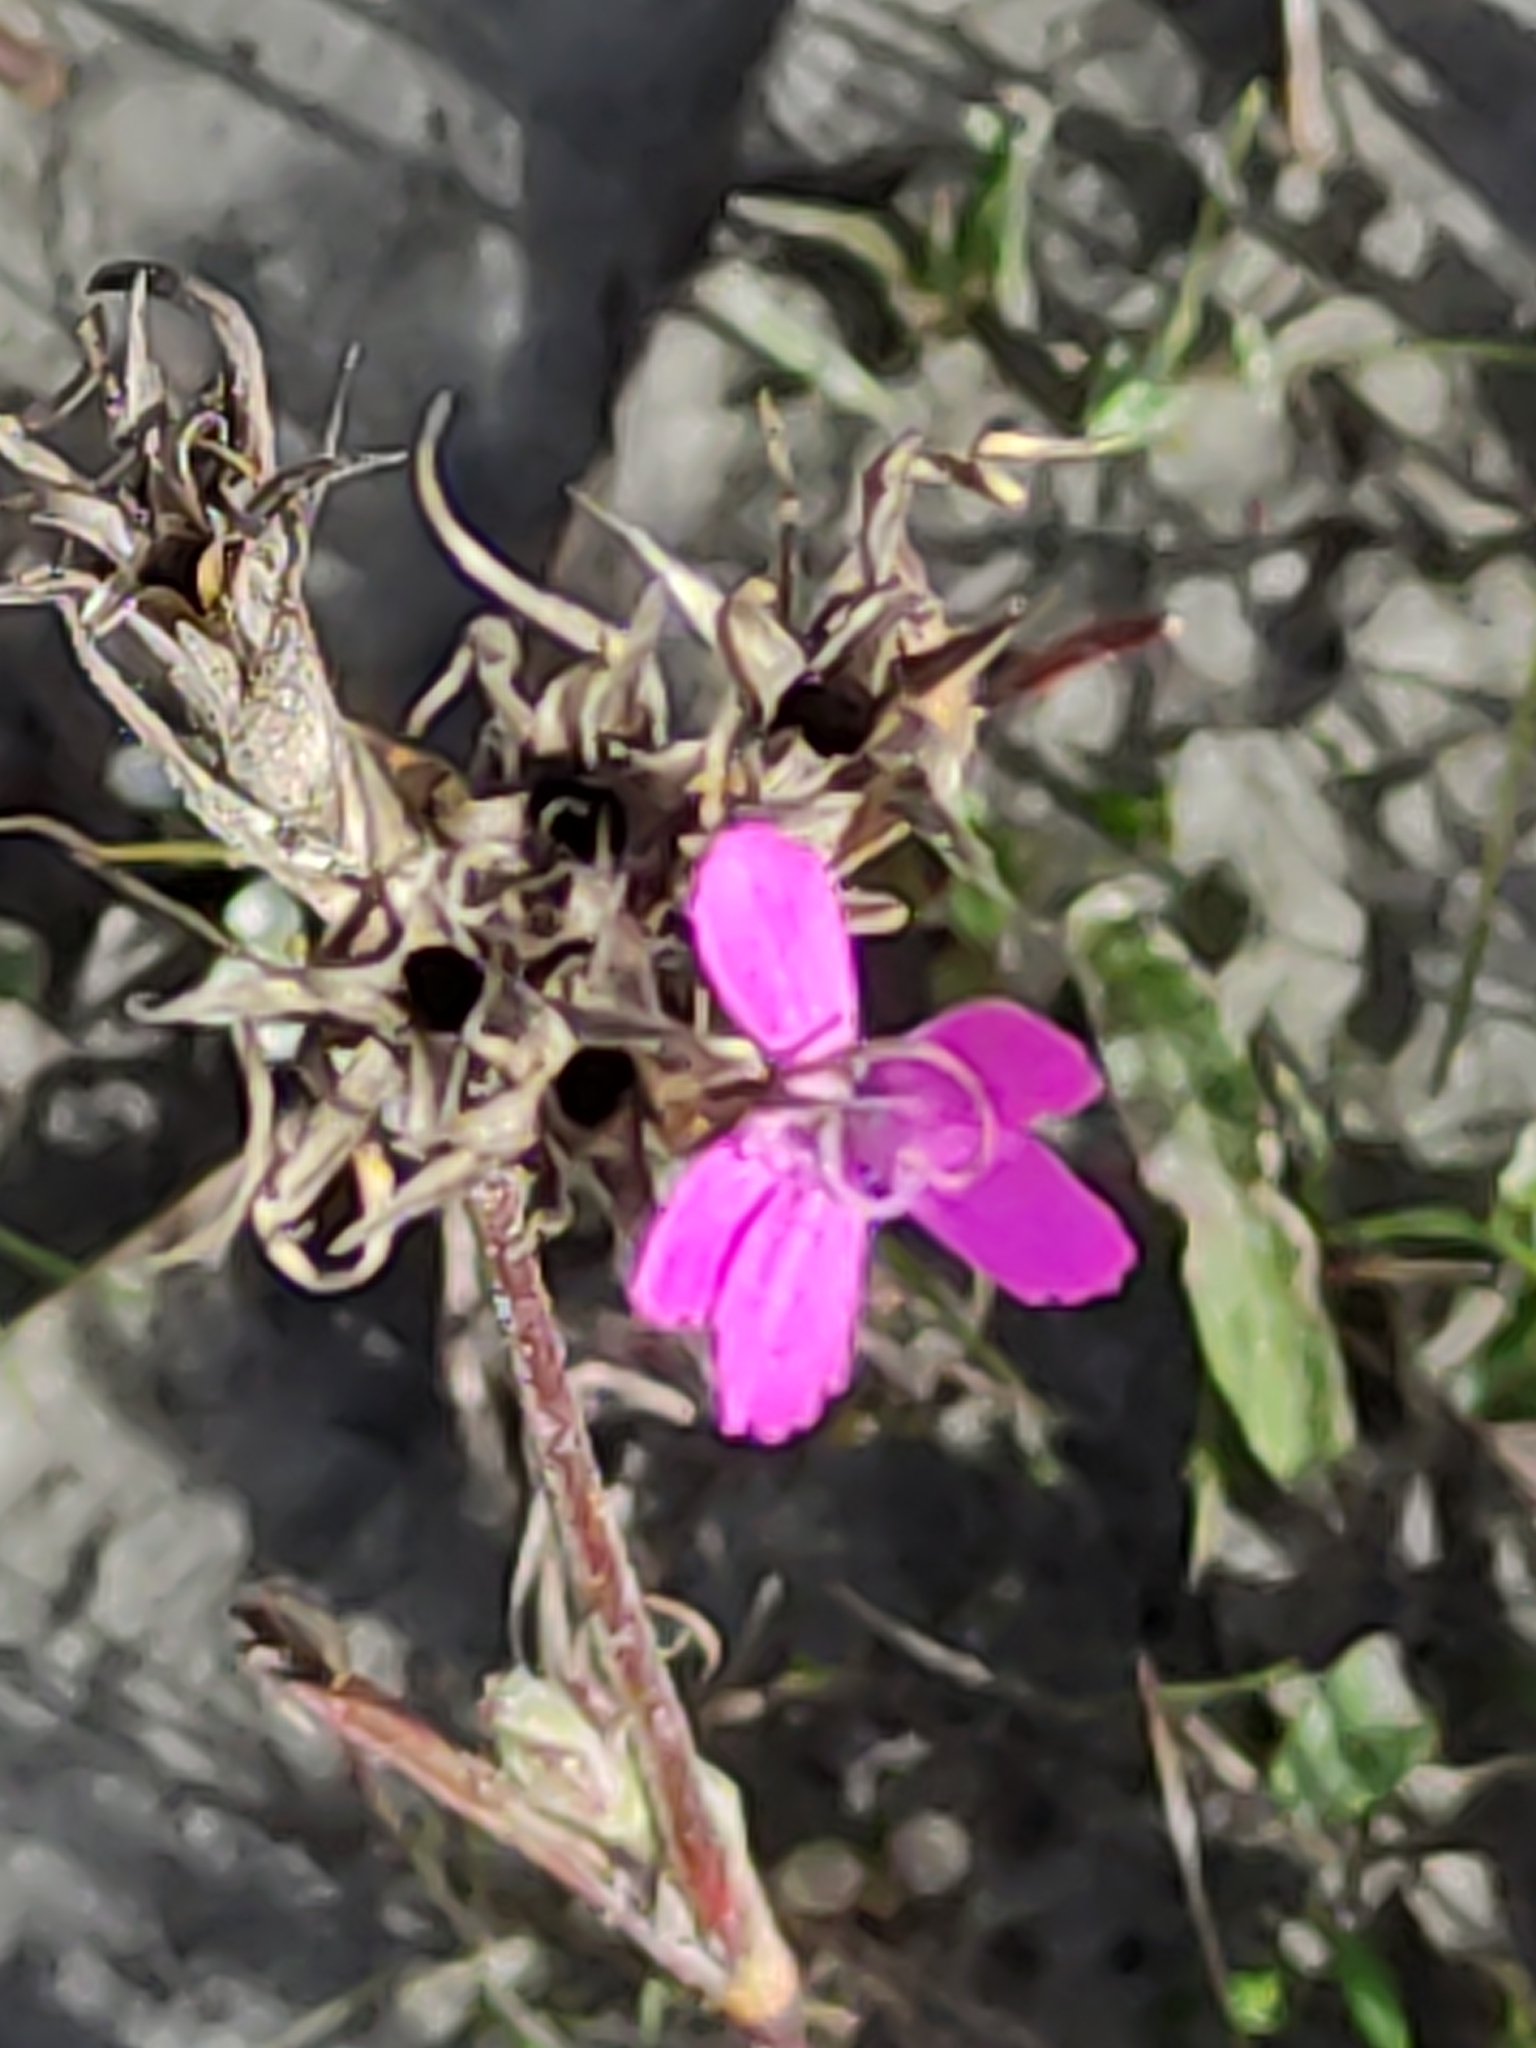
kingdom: Plantae
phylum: Tracheophyta
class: Magnoliopsida
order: Caryophyllales
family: Caryophyllaceae
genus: Dianthus
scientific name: Dianthus armeria
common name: Deptford pink
